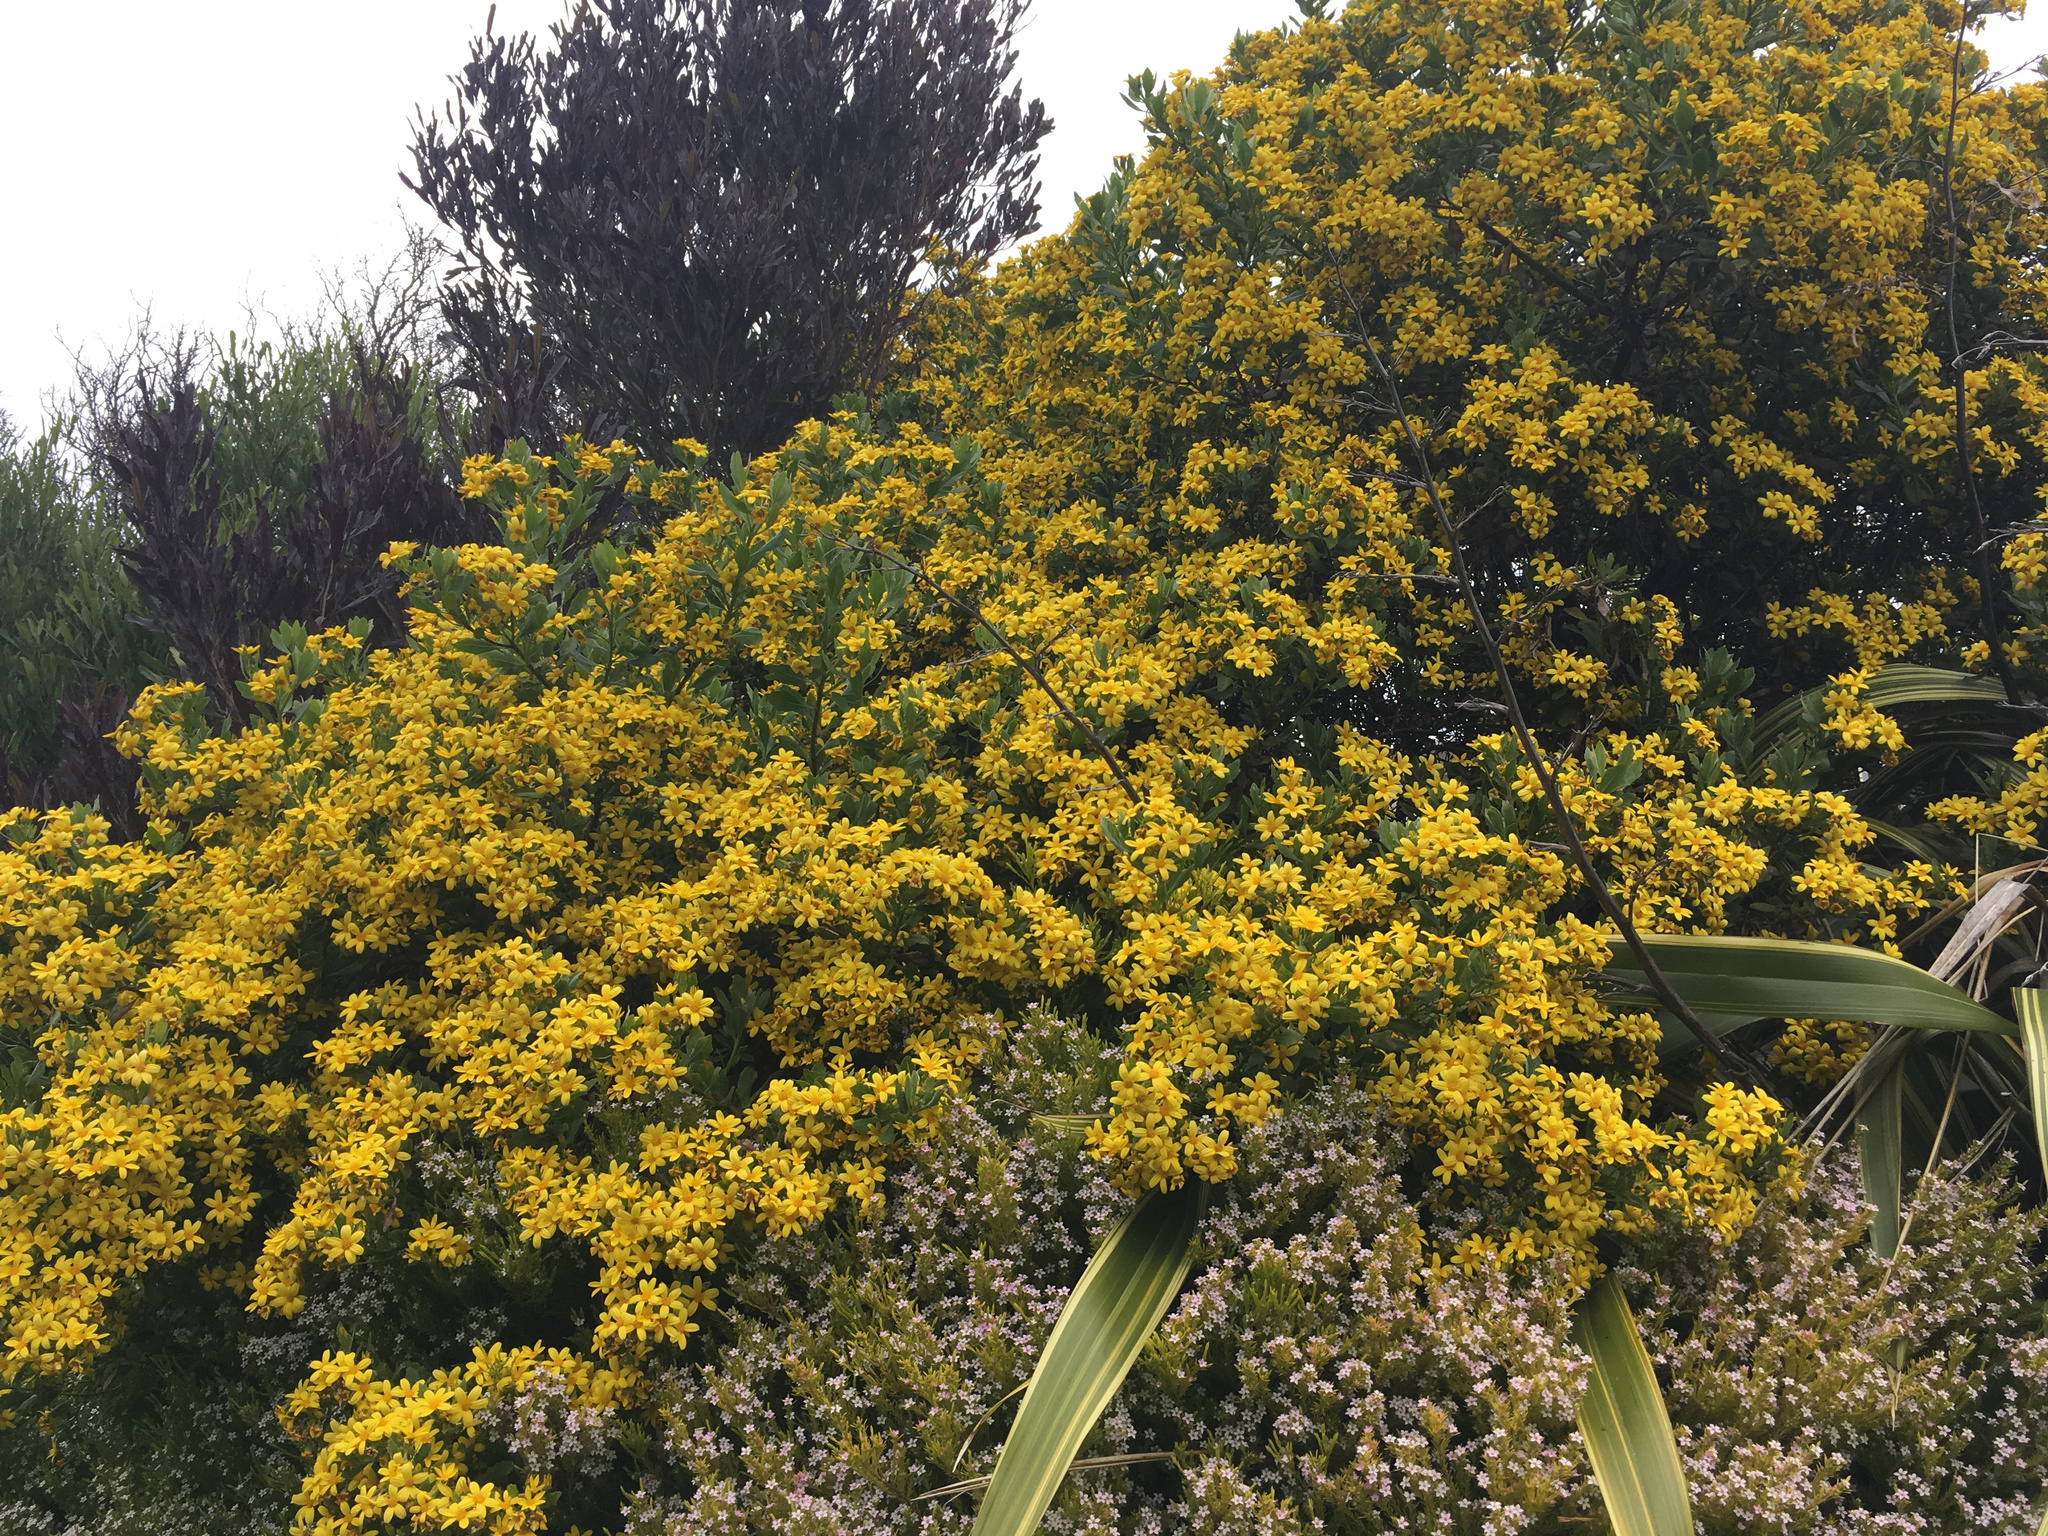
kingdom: Plantae
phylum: Tracheophyta
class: Magnoliopsida
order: Asterales
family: Asteraceae
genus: Osteospermum
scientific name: Osteospermum moniliferum
